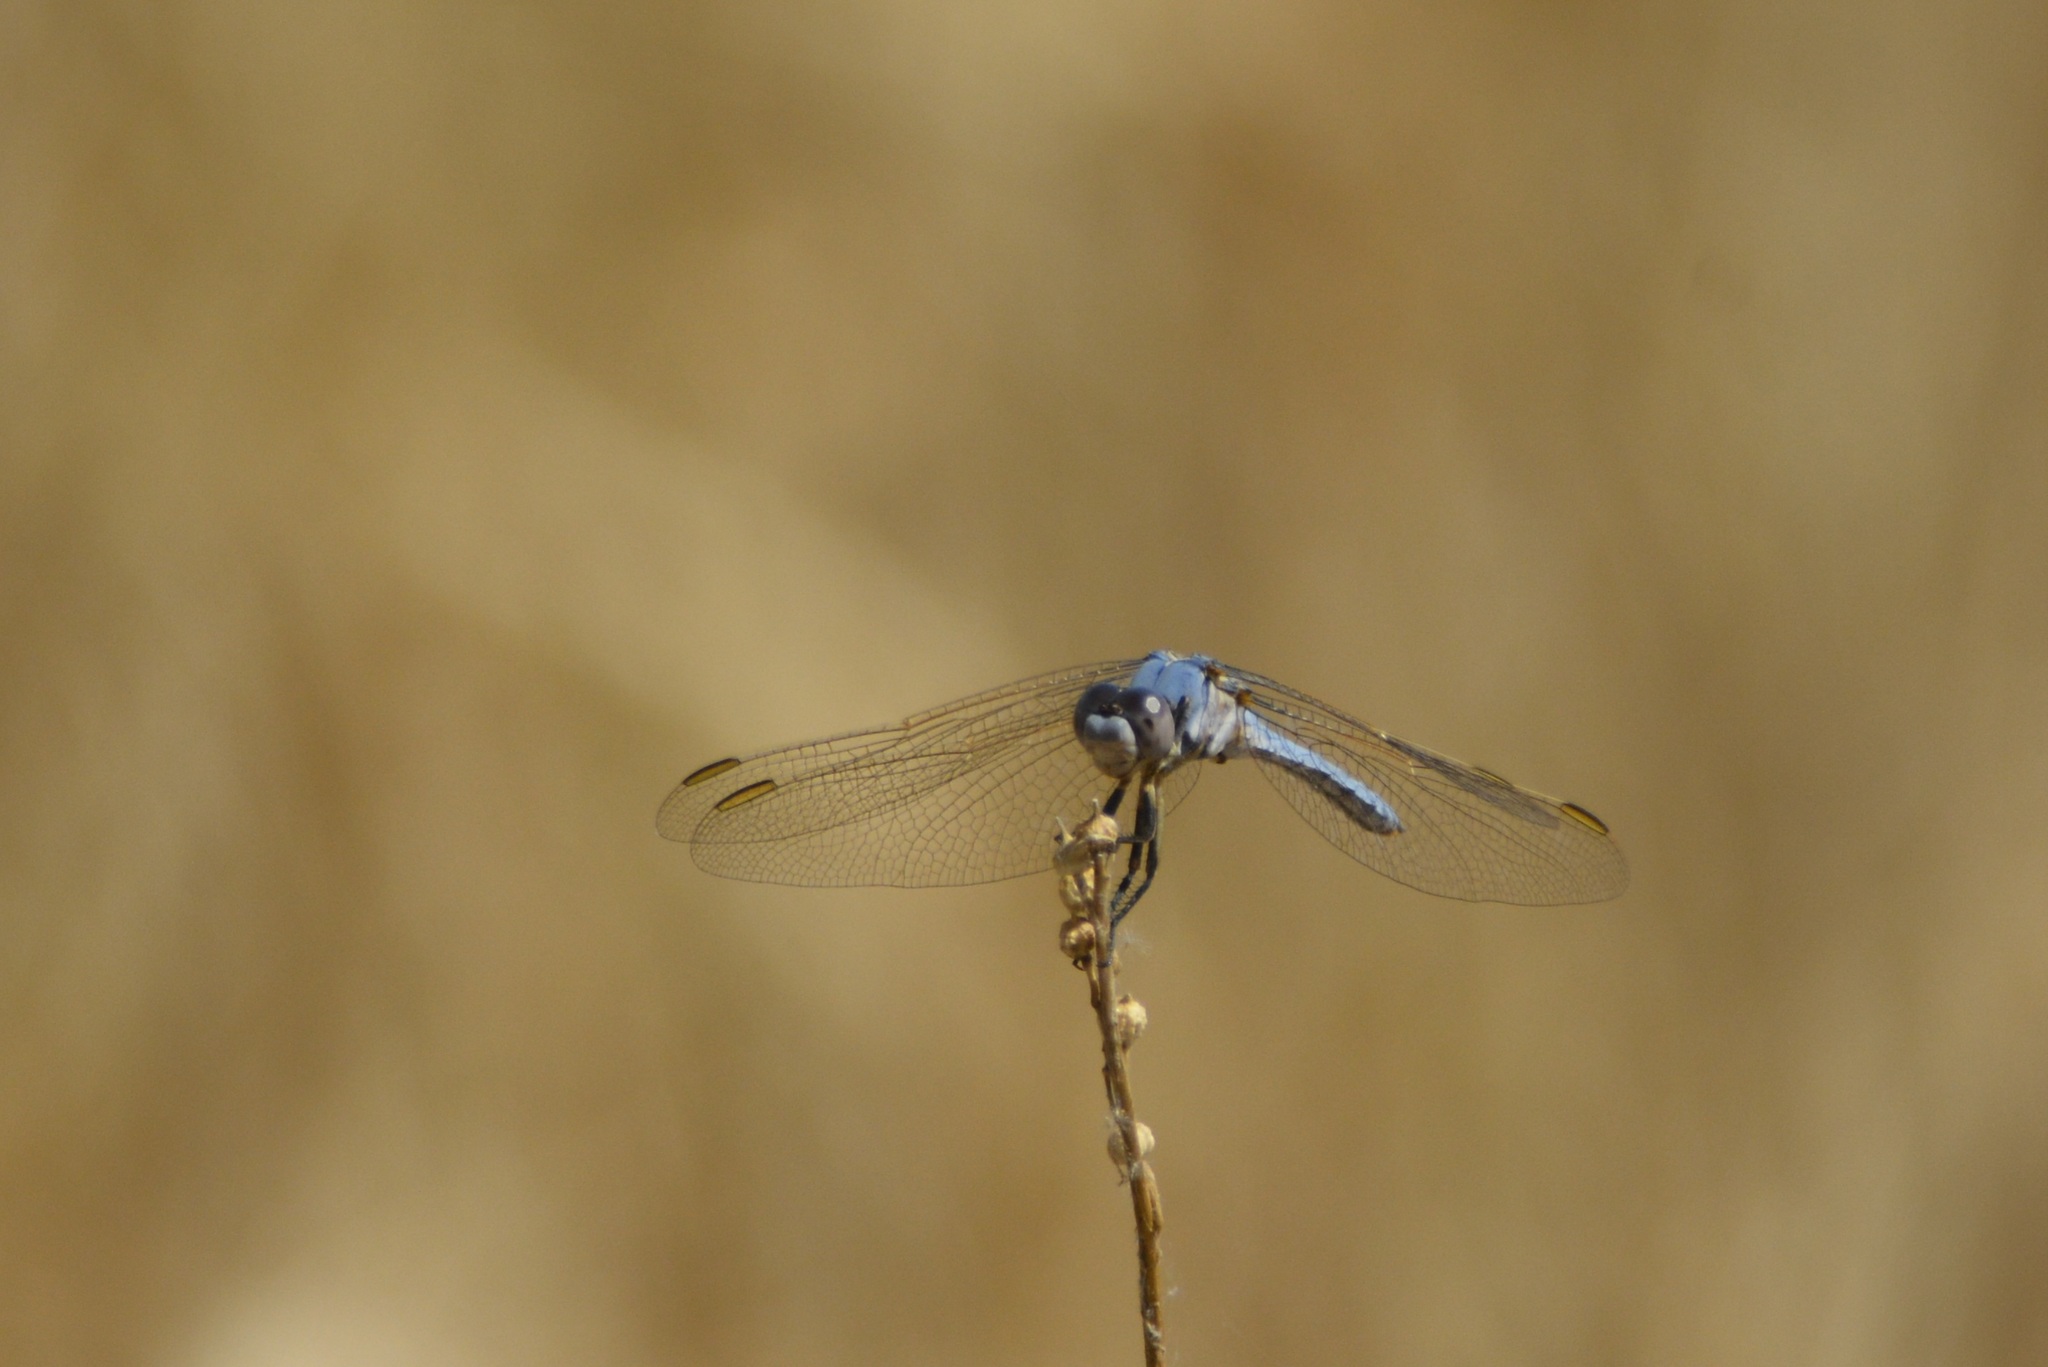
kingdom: Animalia
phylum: Arthropoda
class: Insecta
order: Odonata
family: Libellulidae
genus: Orthetrum
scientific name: Orthetrum nitidinerve
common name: Yellow-veined skimmer
